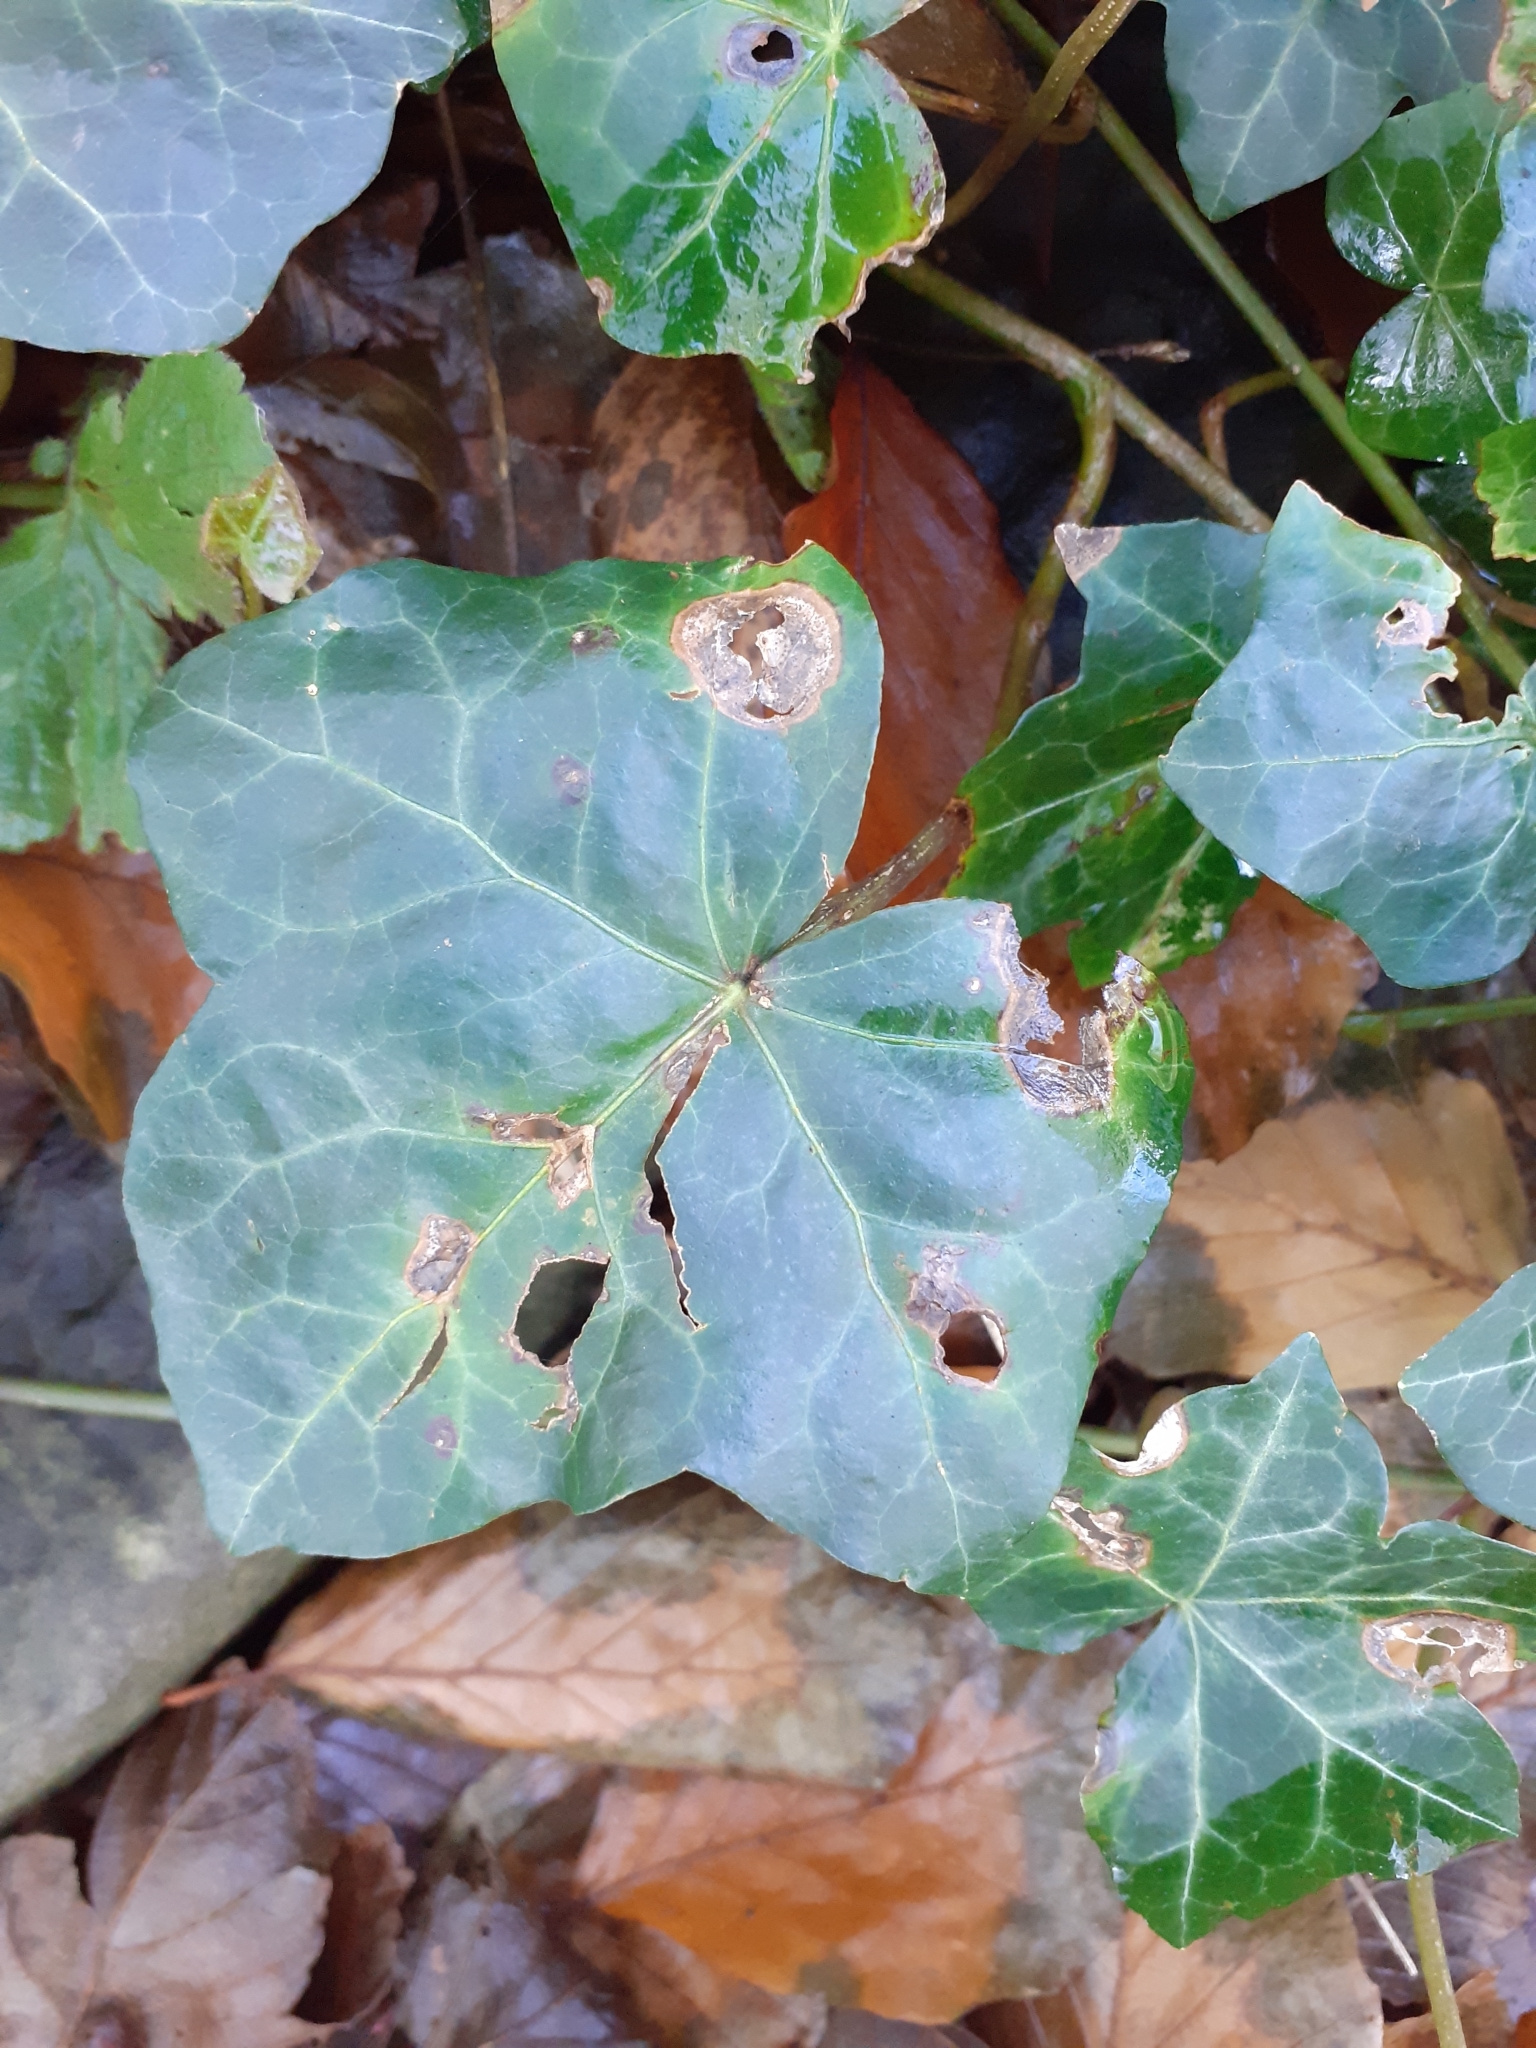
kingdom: Fungi
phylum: Ascomycota
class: Dothideomycetes
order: Pleosporales
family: Didymellaceae
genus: Boeremia
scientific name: Boeremia hedericola
